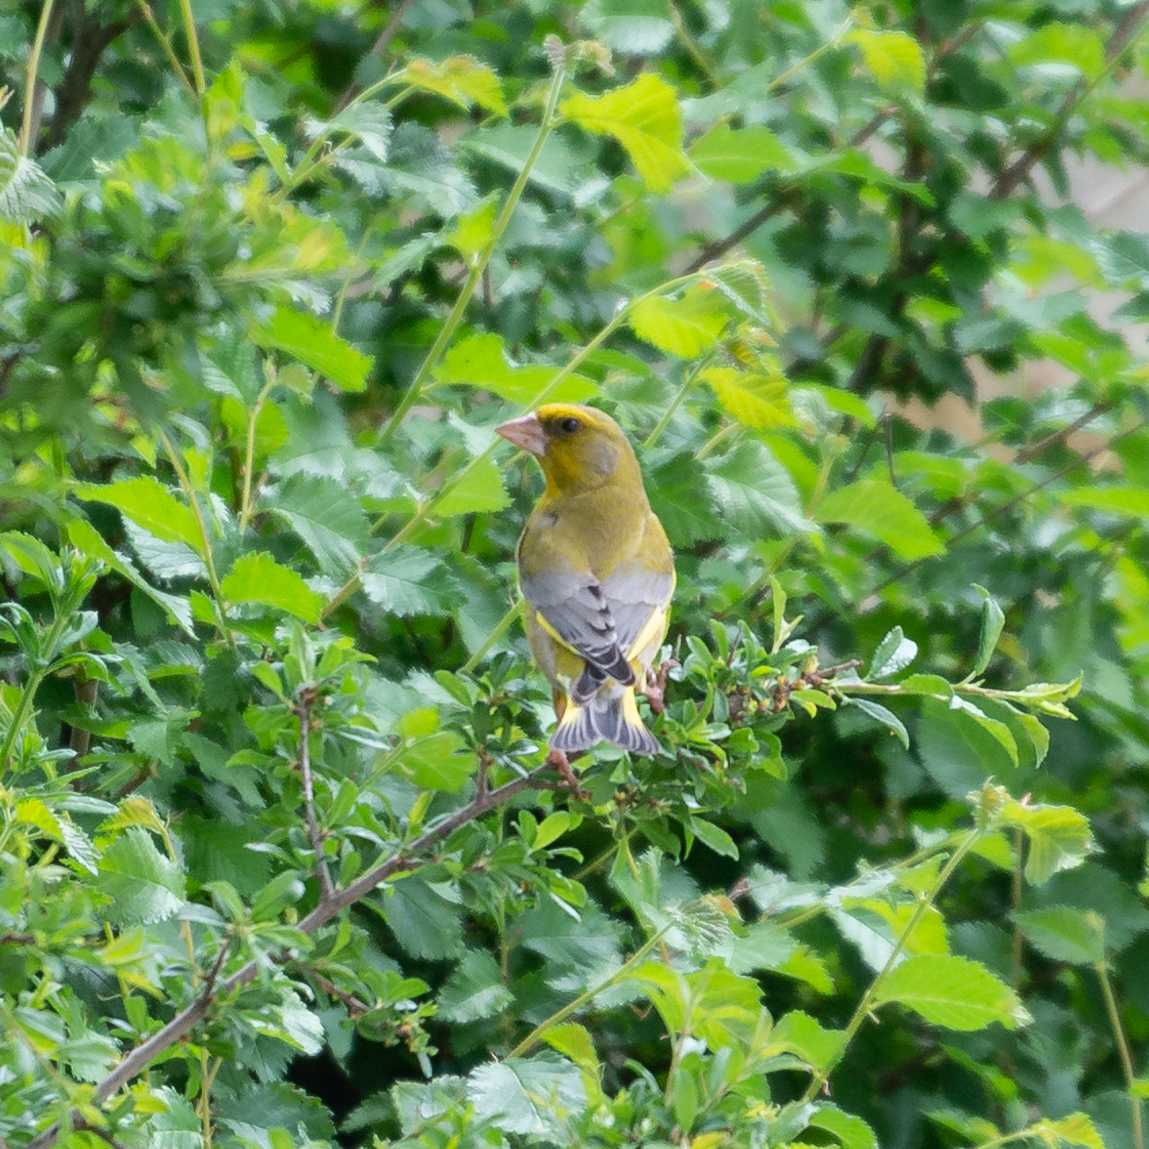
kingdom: Plantae
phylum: Tracheophyta
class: Liliopsida
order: Poales
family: Poaceae
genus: Chloris
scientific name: Chloris chloris
